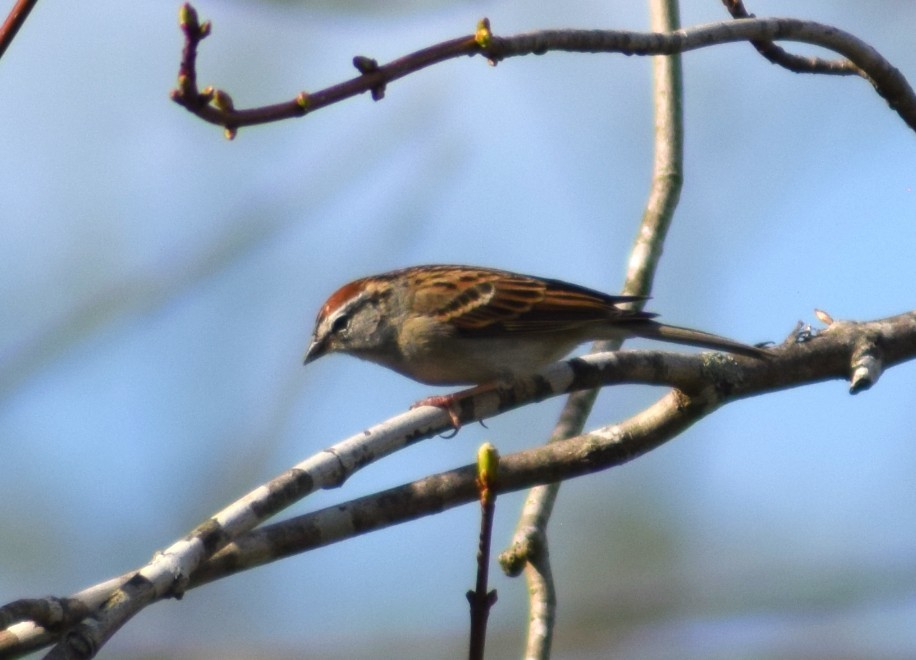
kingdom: Animalia
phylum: Chordata
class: Aves
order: Passeriformes
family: Passerellidae
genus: Spizella
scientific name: Spizella passerina
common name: Chipping sparrow
